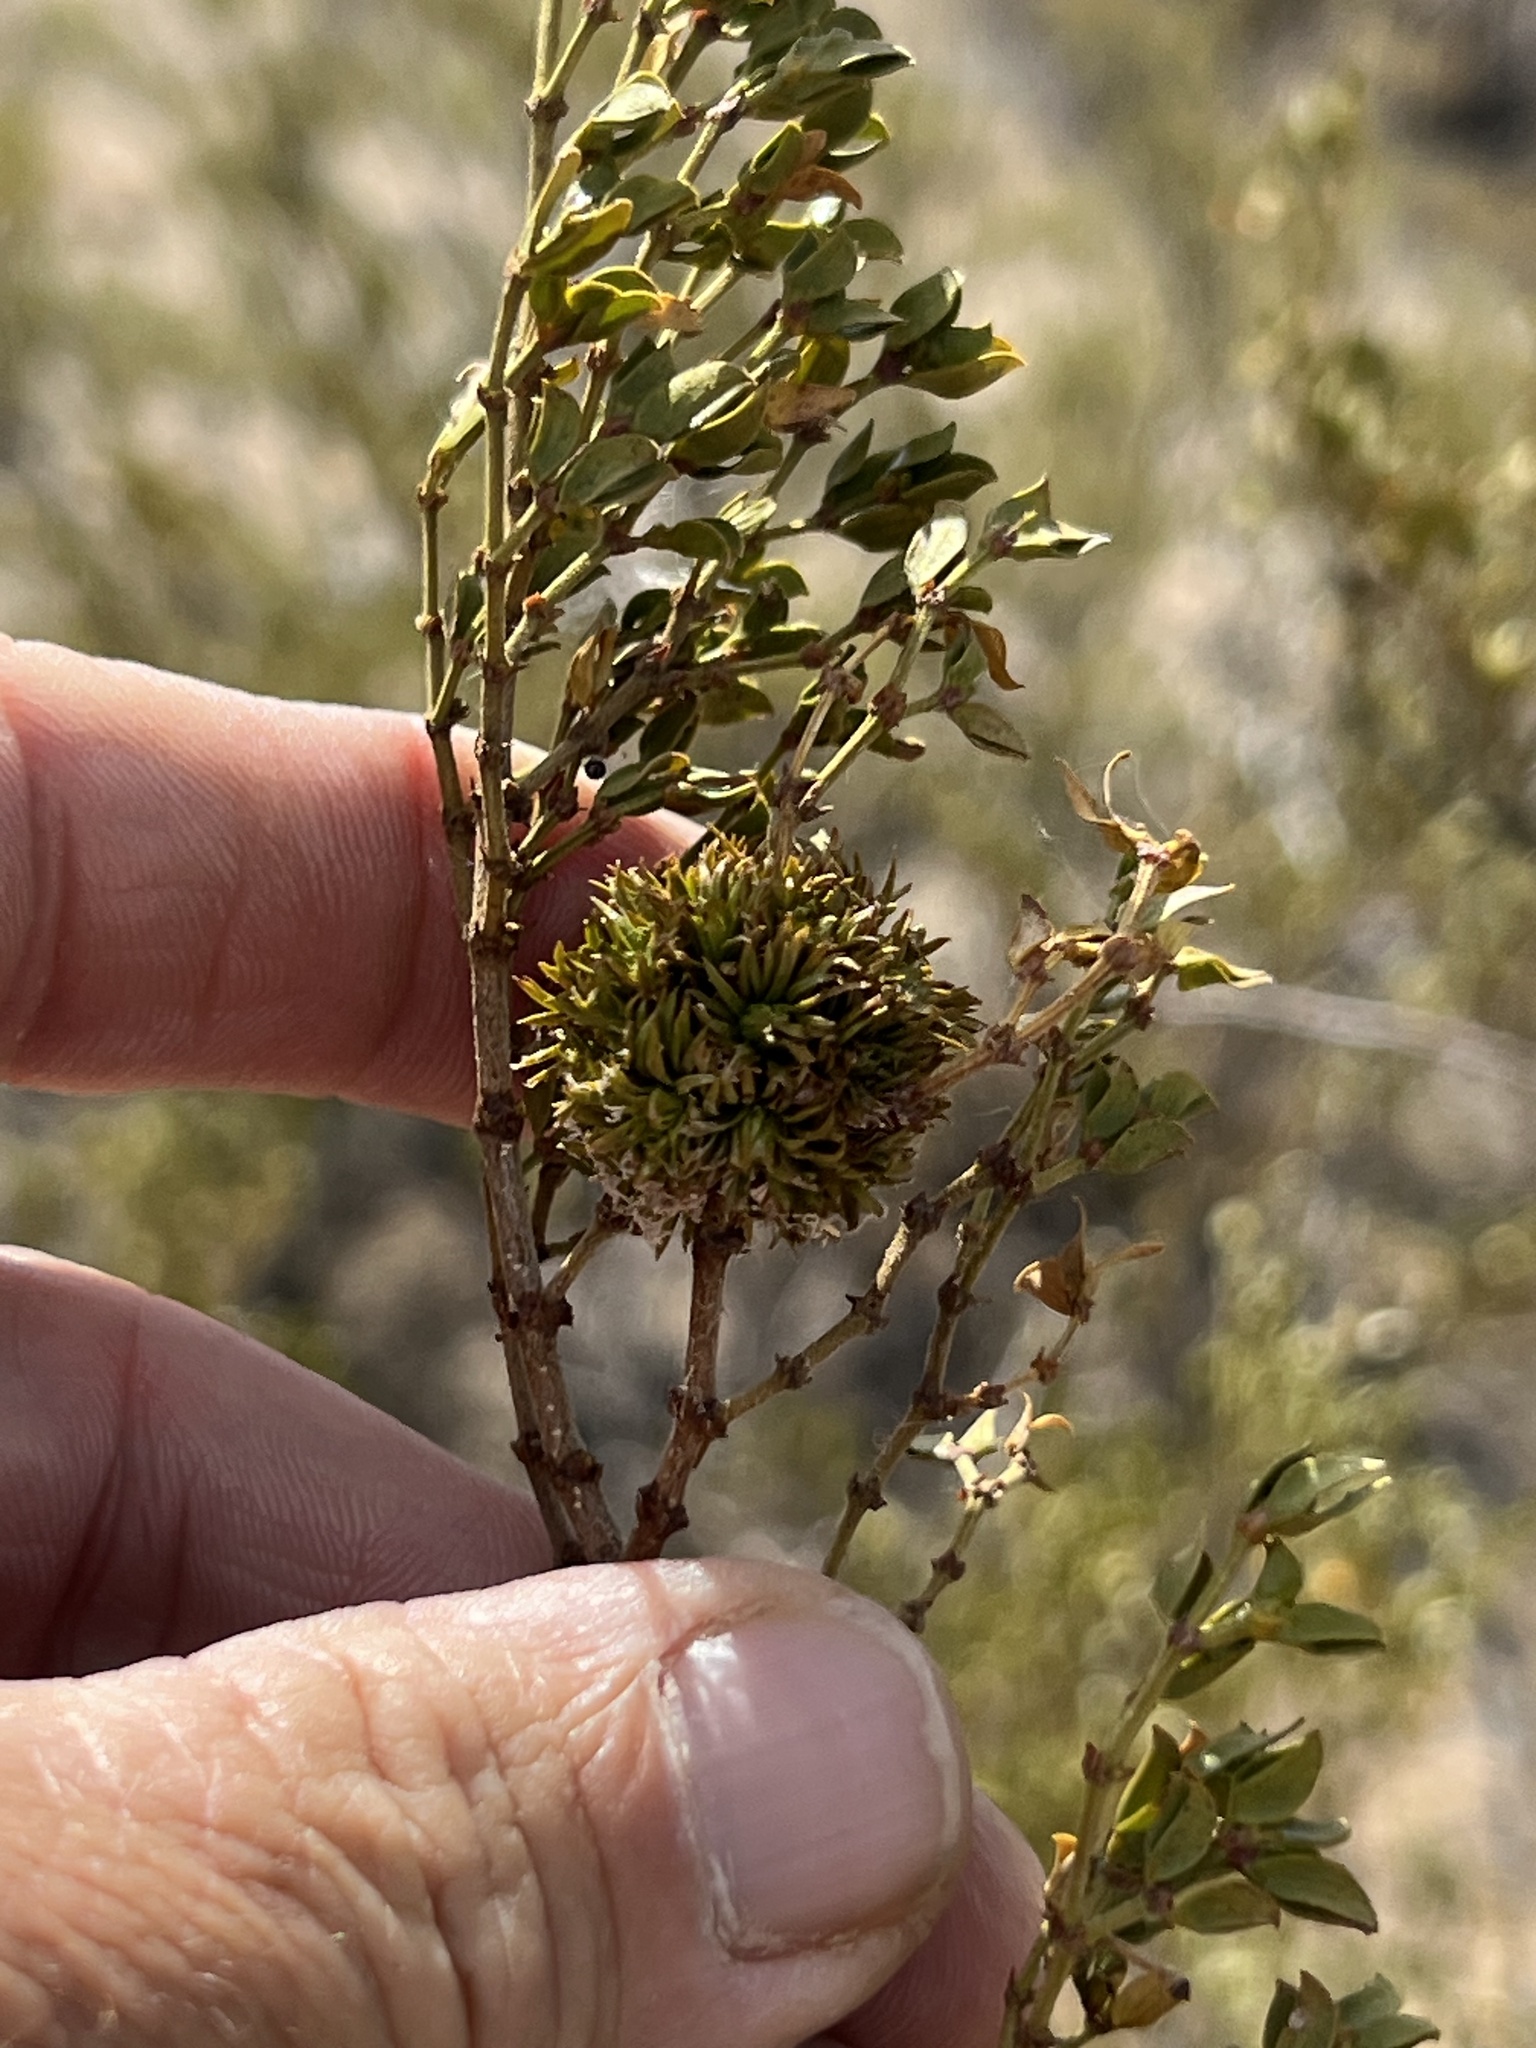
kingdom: Animalia
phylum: Arthropoda
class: Insecta
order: Diptera
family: Cecidomyiidae
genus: Asphondylia
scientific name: Asphondylia auripila
